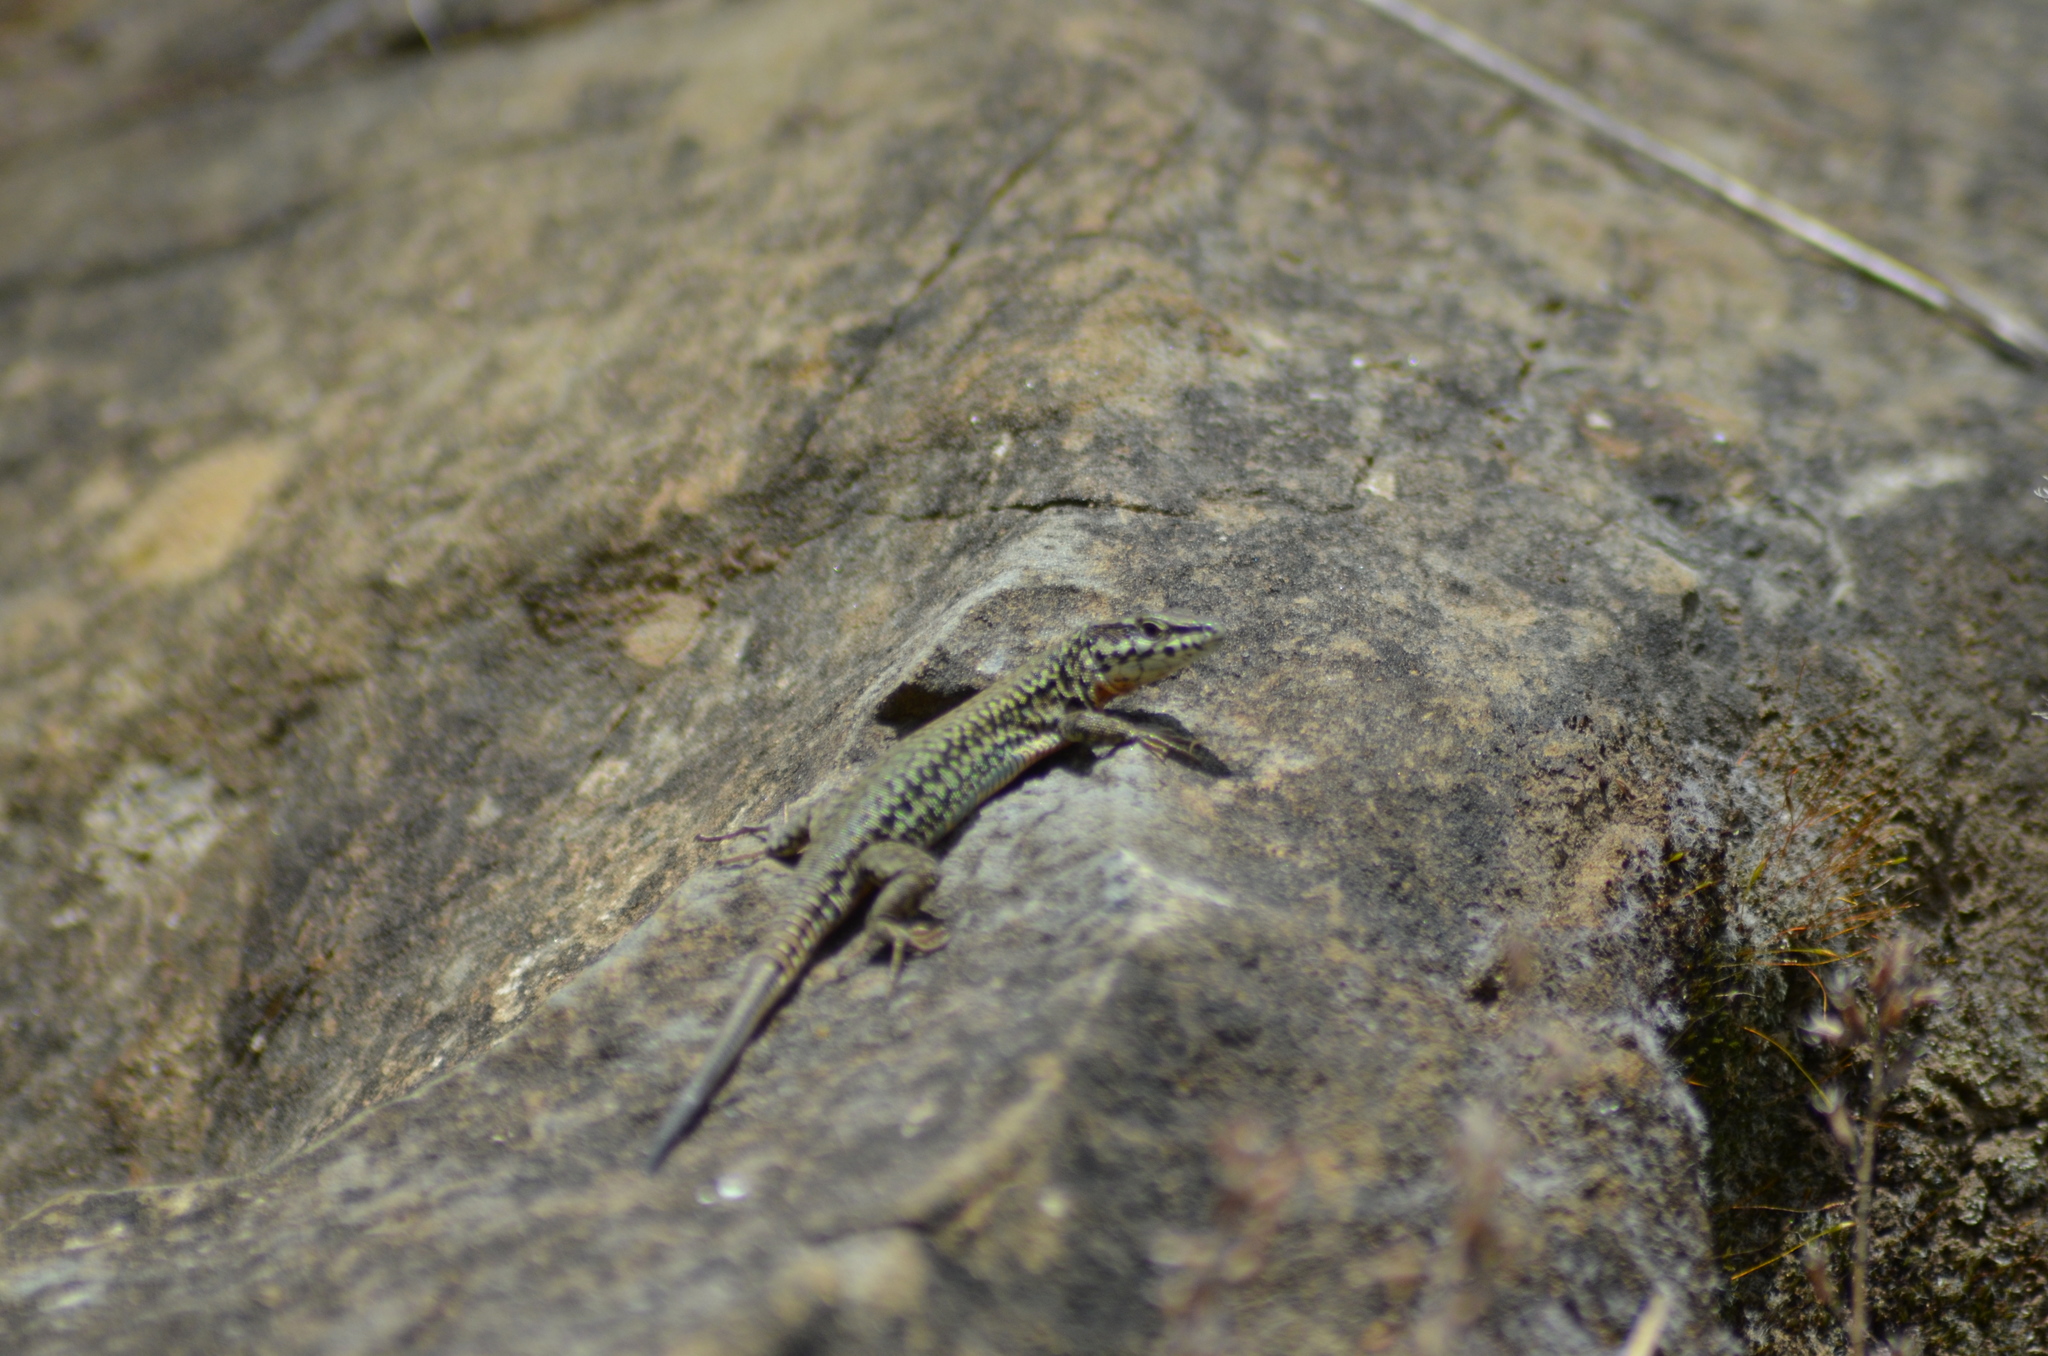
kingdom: Animalia
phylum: Chordata
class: Squamata
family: Lacertidae
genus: Podarcis
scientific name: Podarcis liolepis
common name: Catalonian wall lizard
